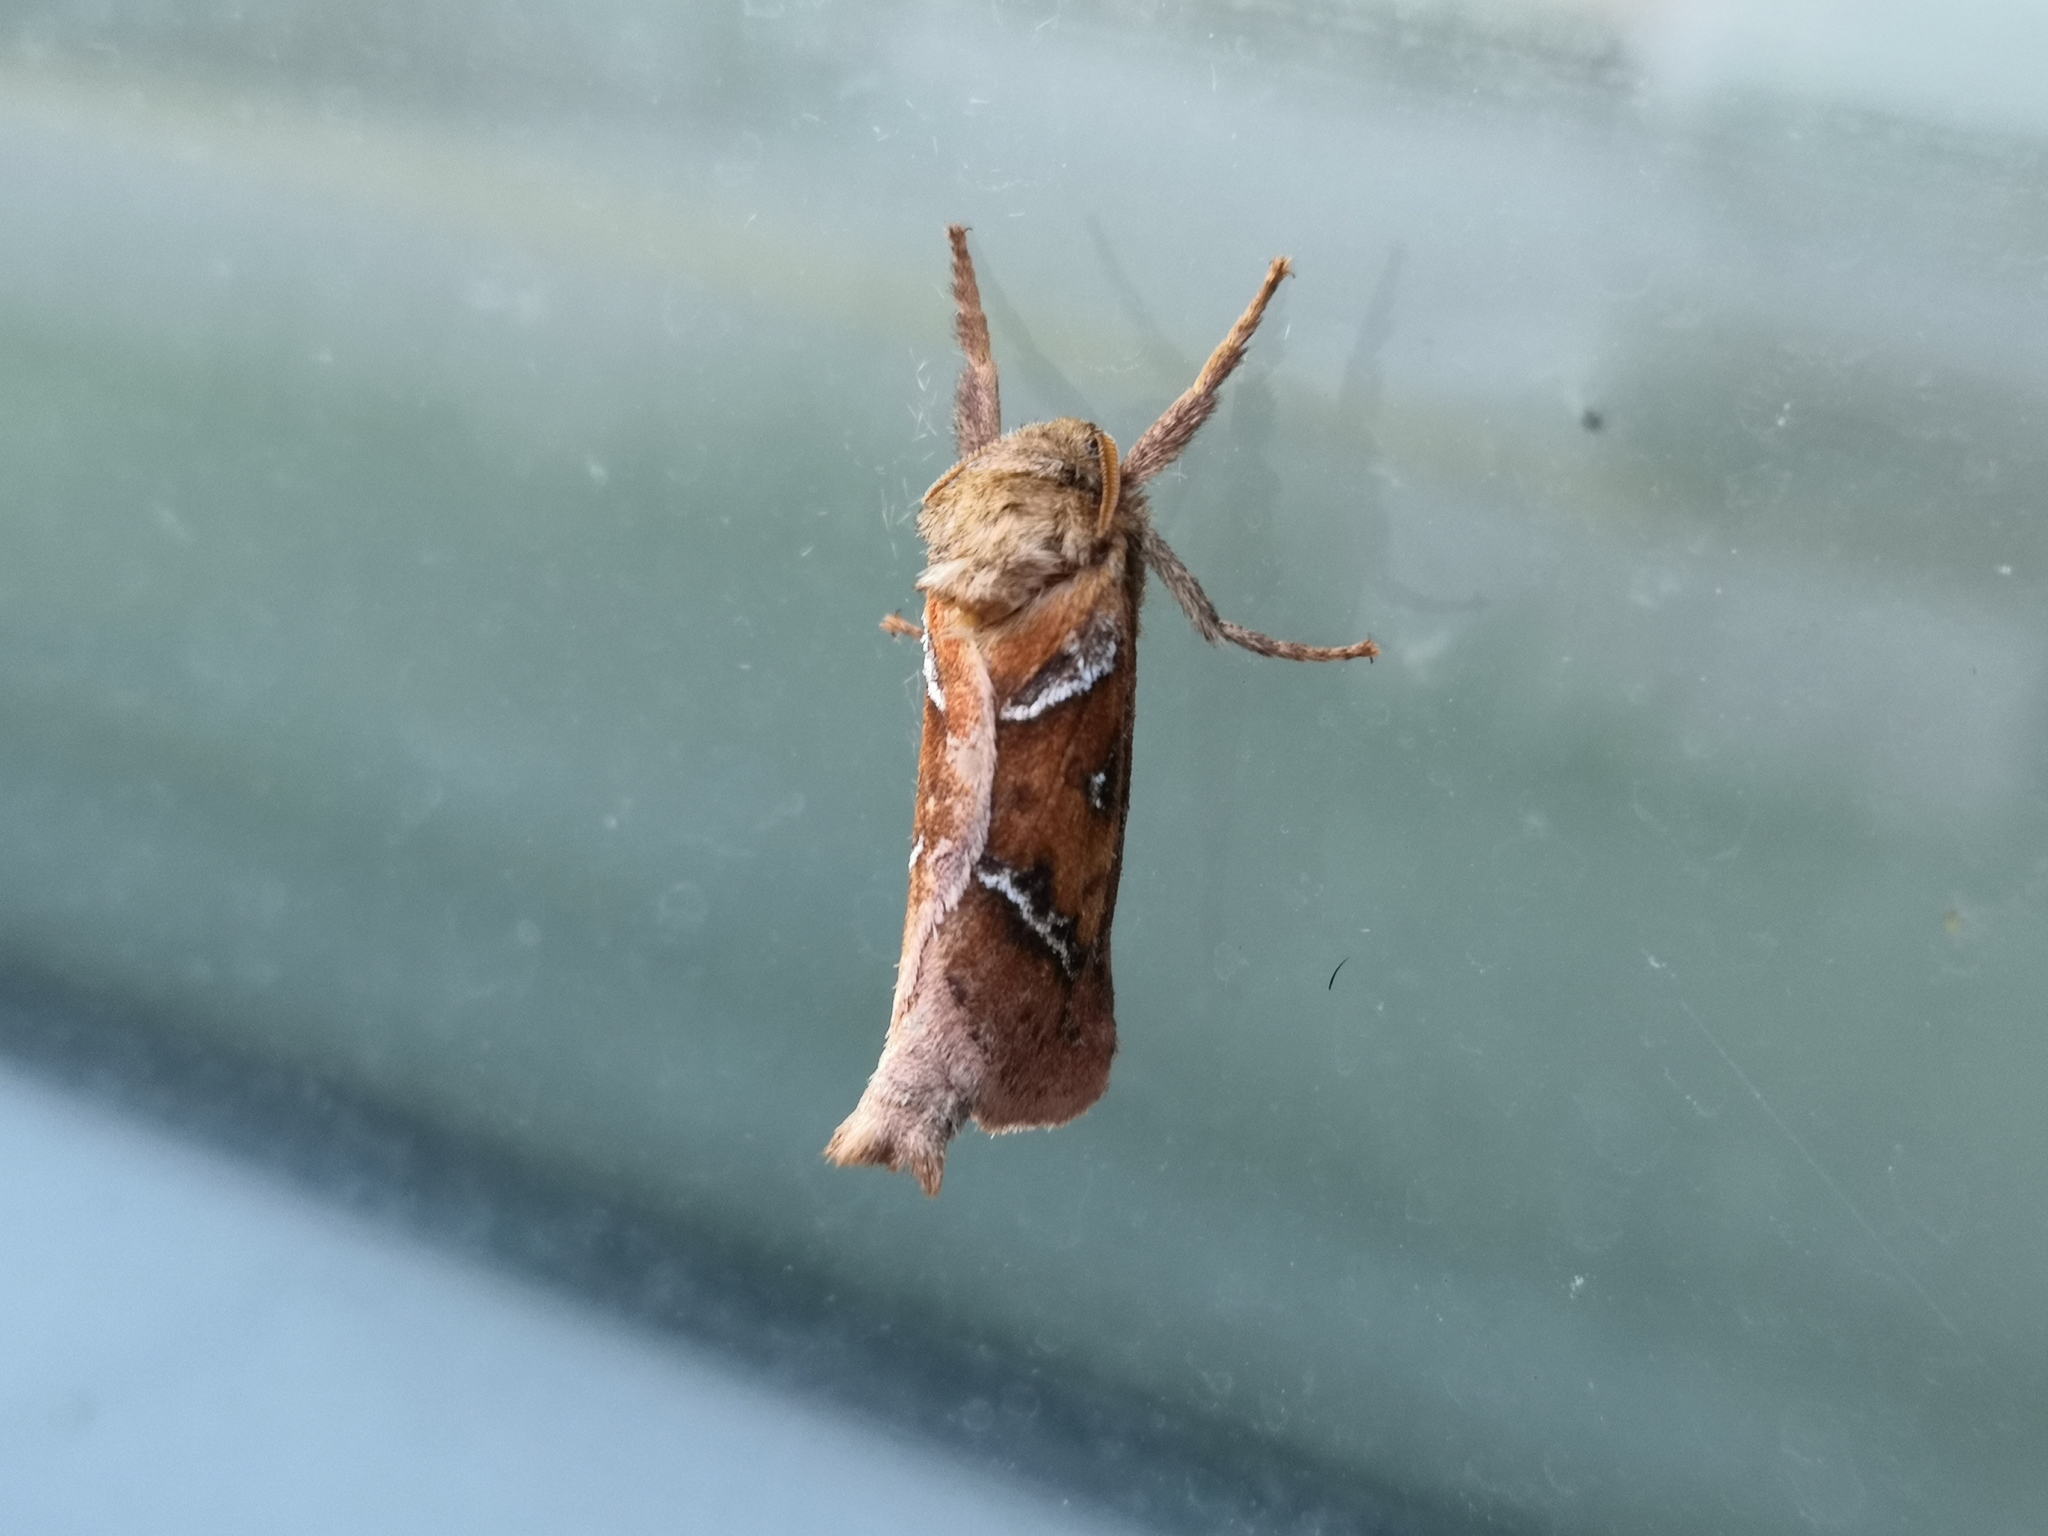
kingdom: Animalia
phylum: Arthropoda
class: Insecta
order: Lepidoptera
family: Hepialidae
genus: Triodia
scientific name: Triodia sylvina
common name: Orange swift
